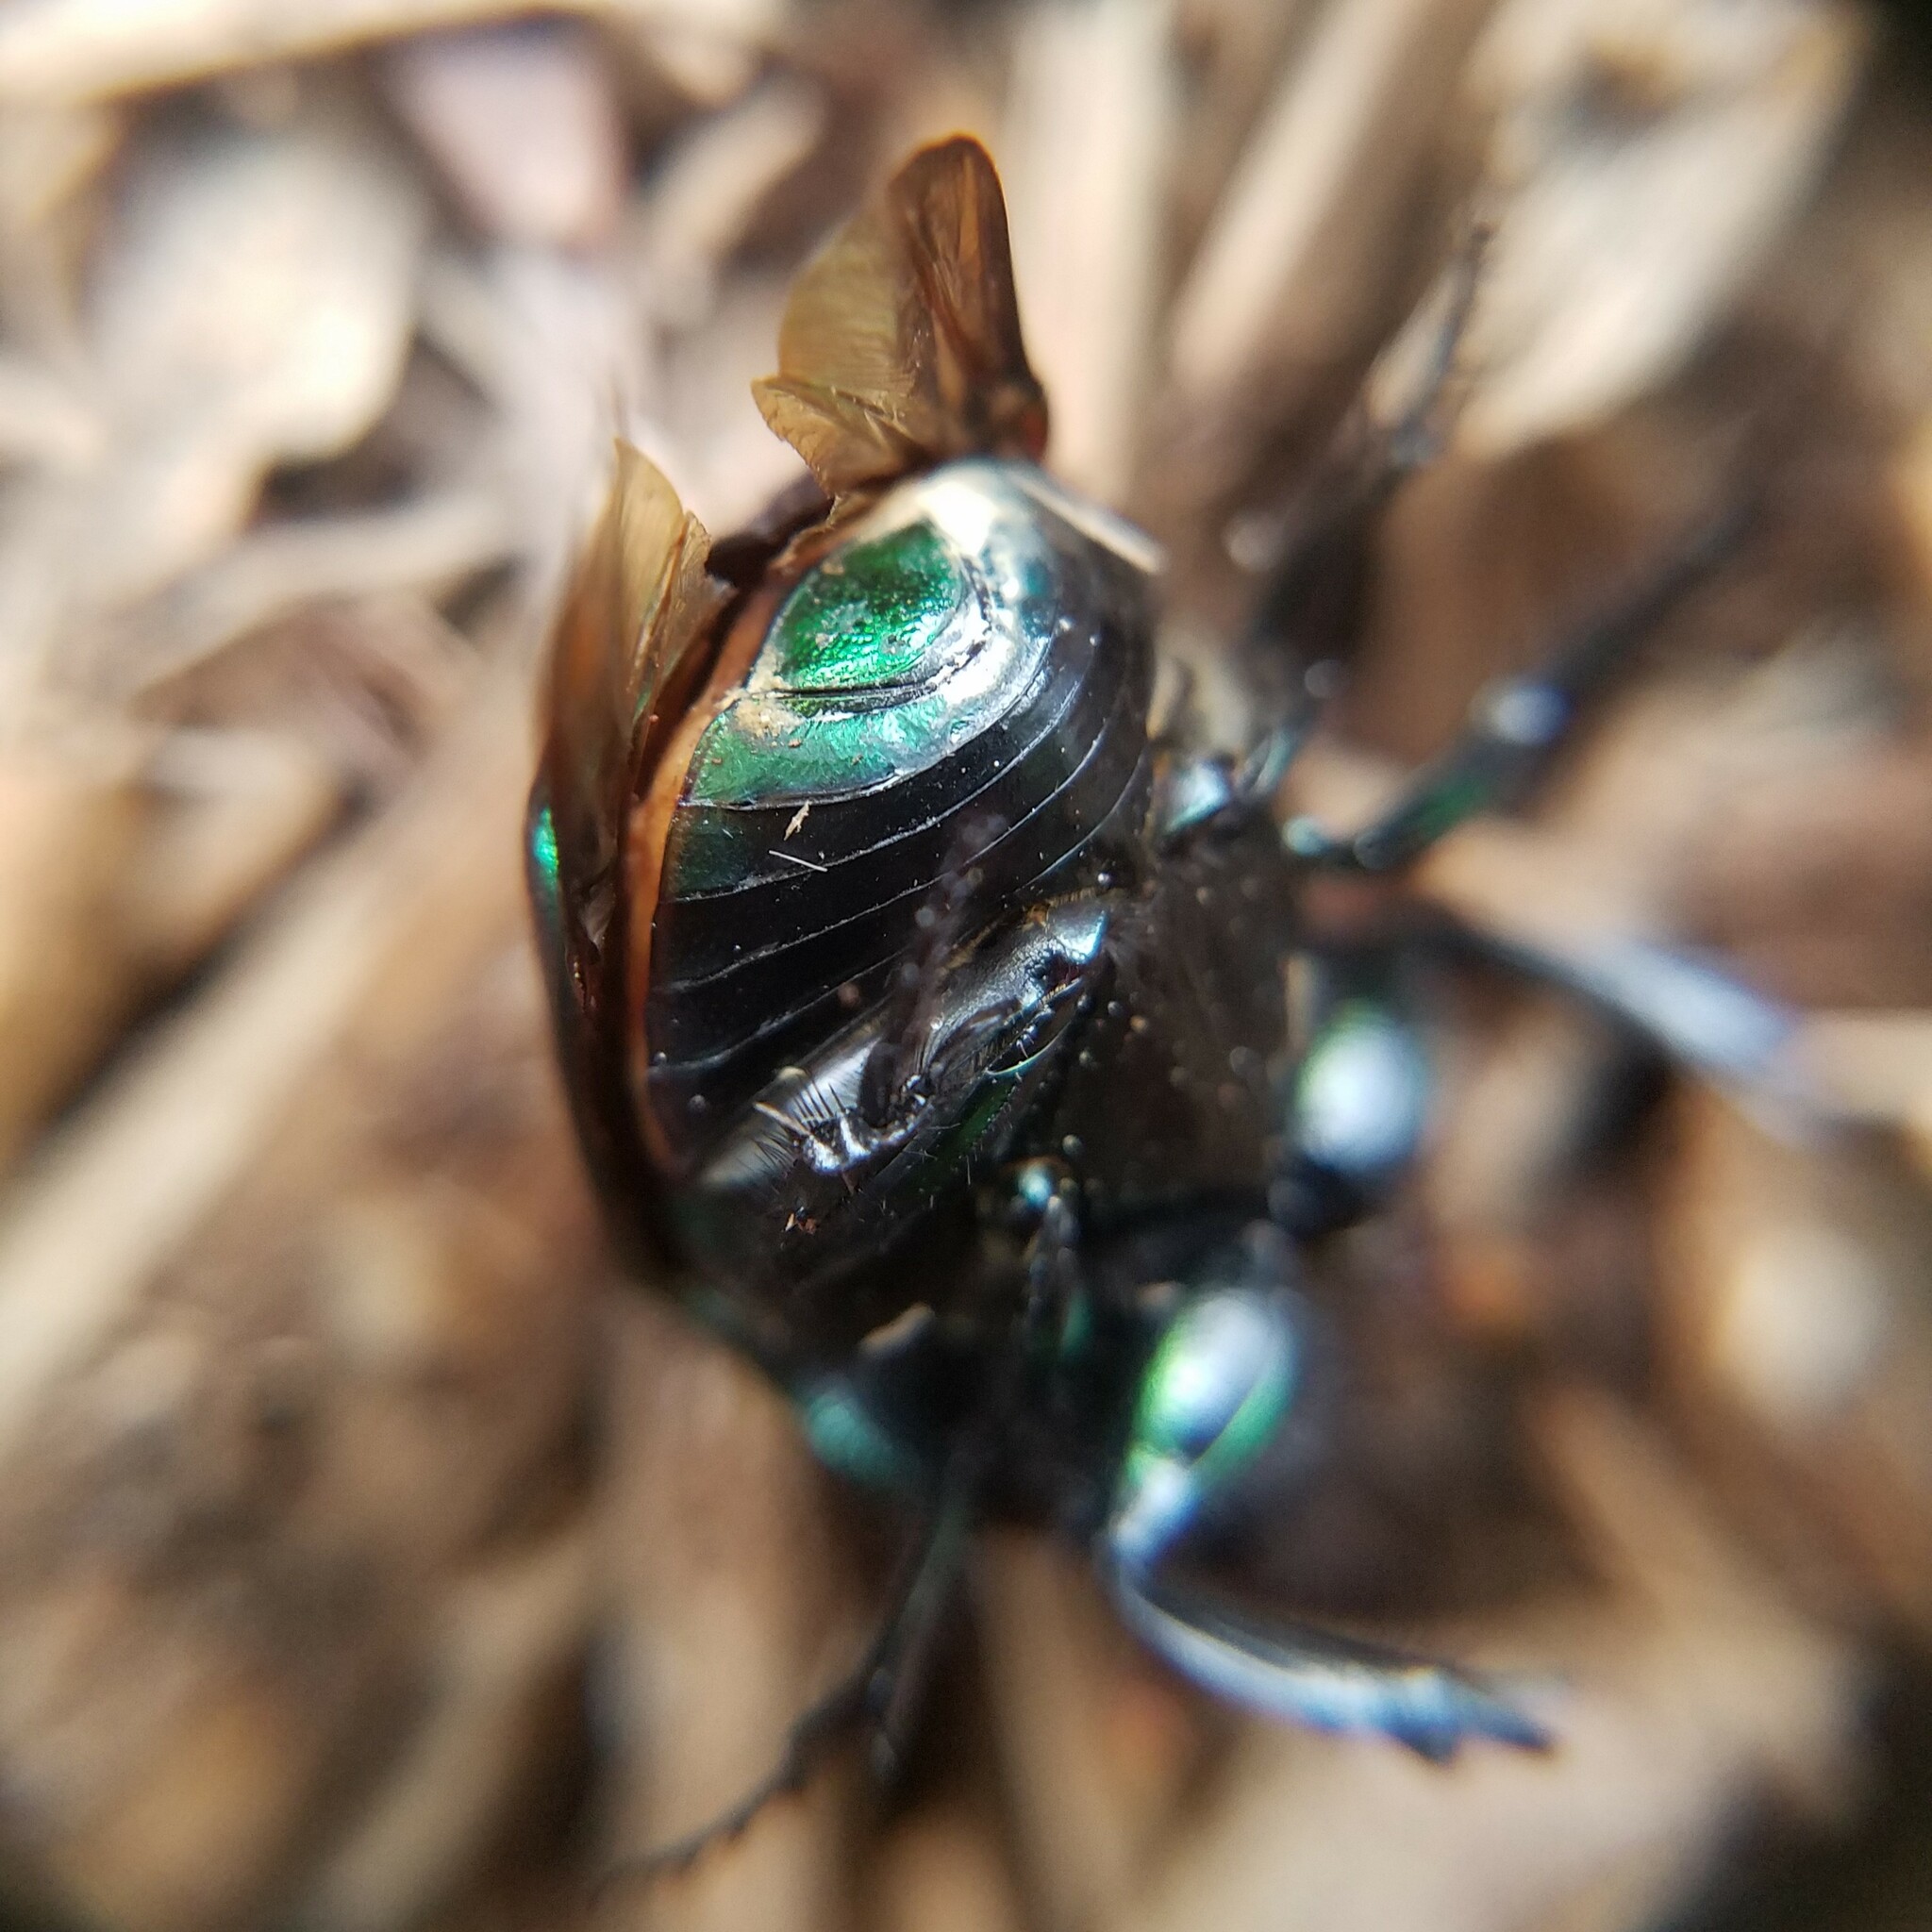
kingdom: Animalia
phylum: Arthropoda
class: Insecta
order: Coleoptera
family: Scarabaeidae
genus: Phanaeus
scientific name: Phanaeus vindex
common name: Rainbow scarab
